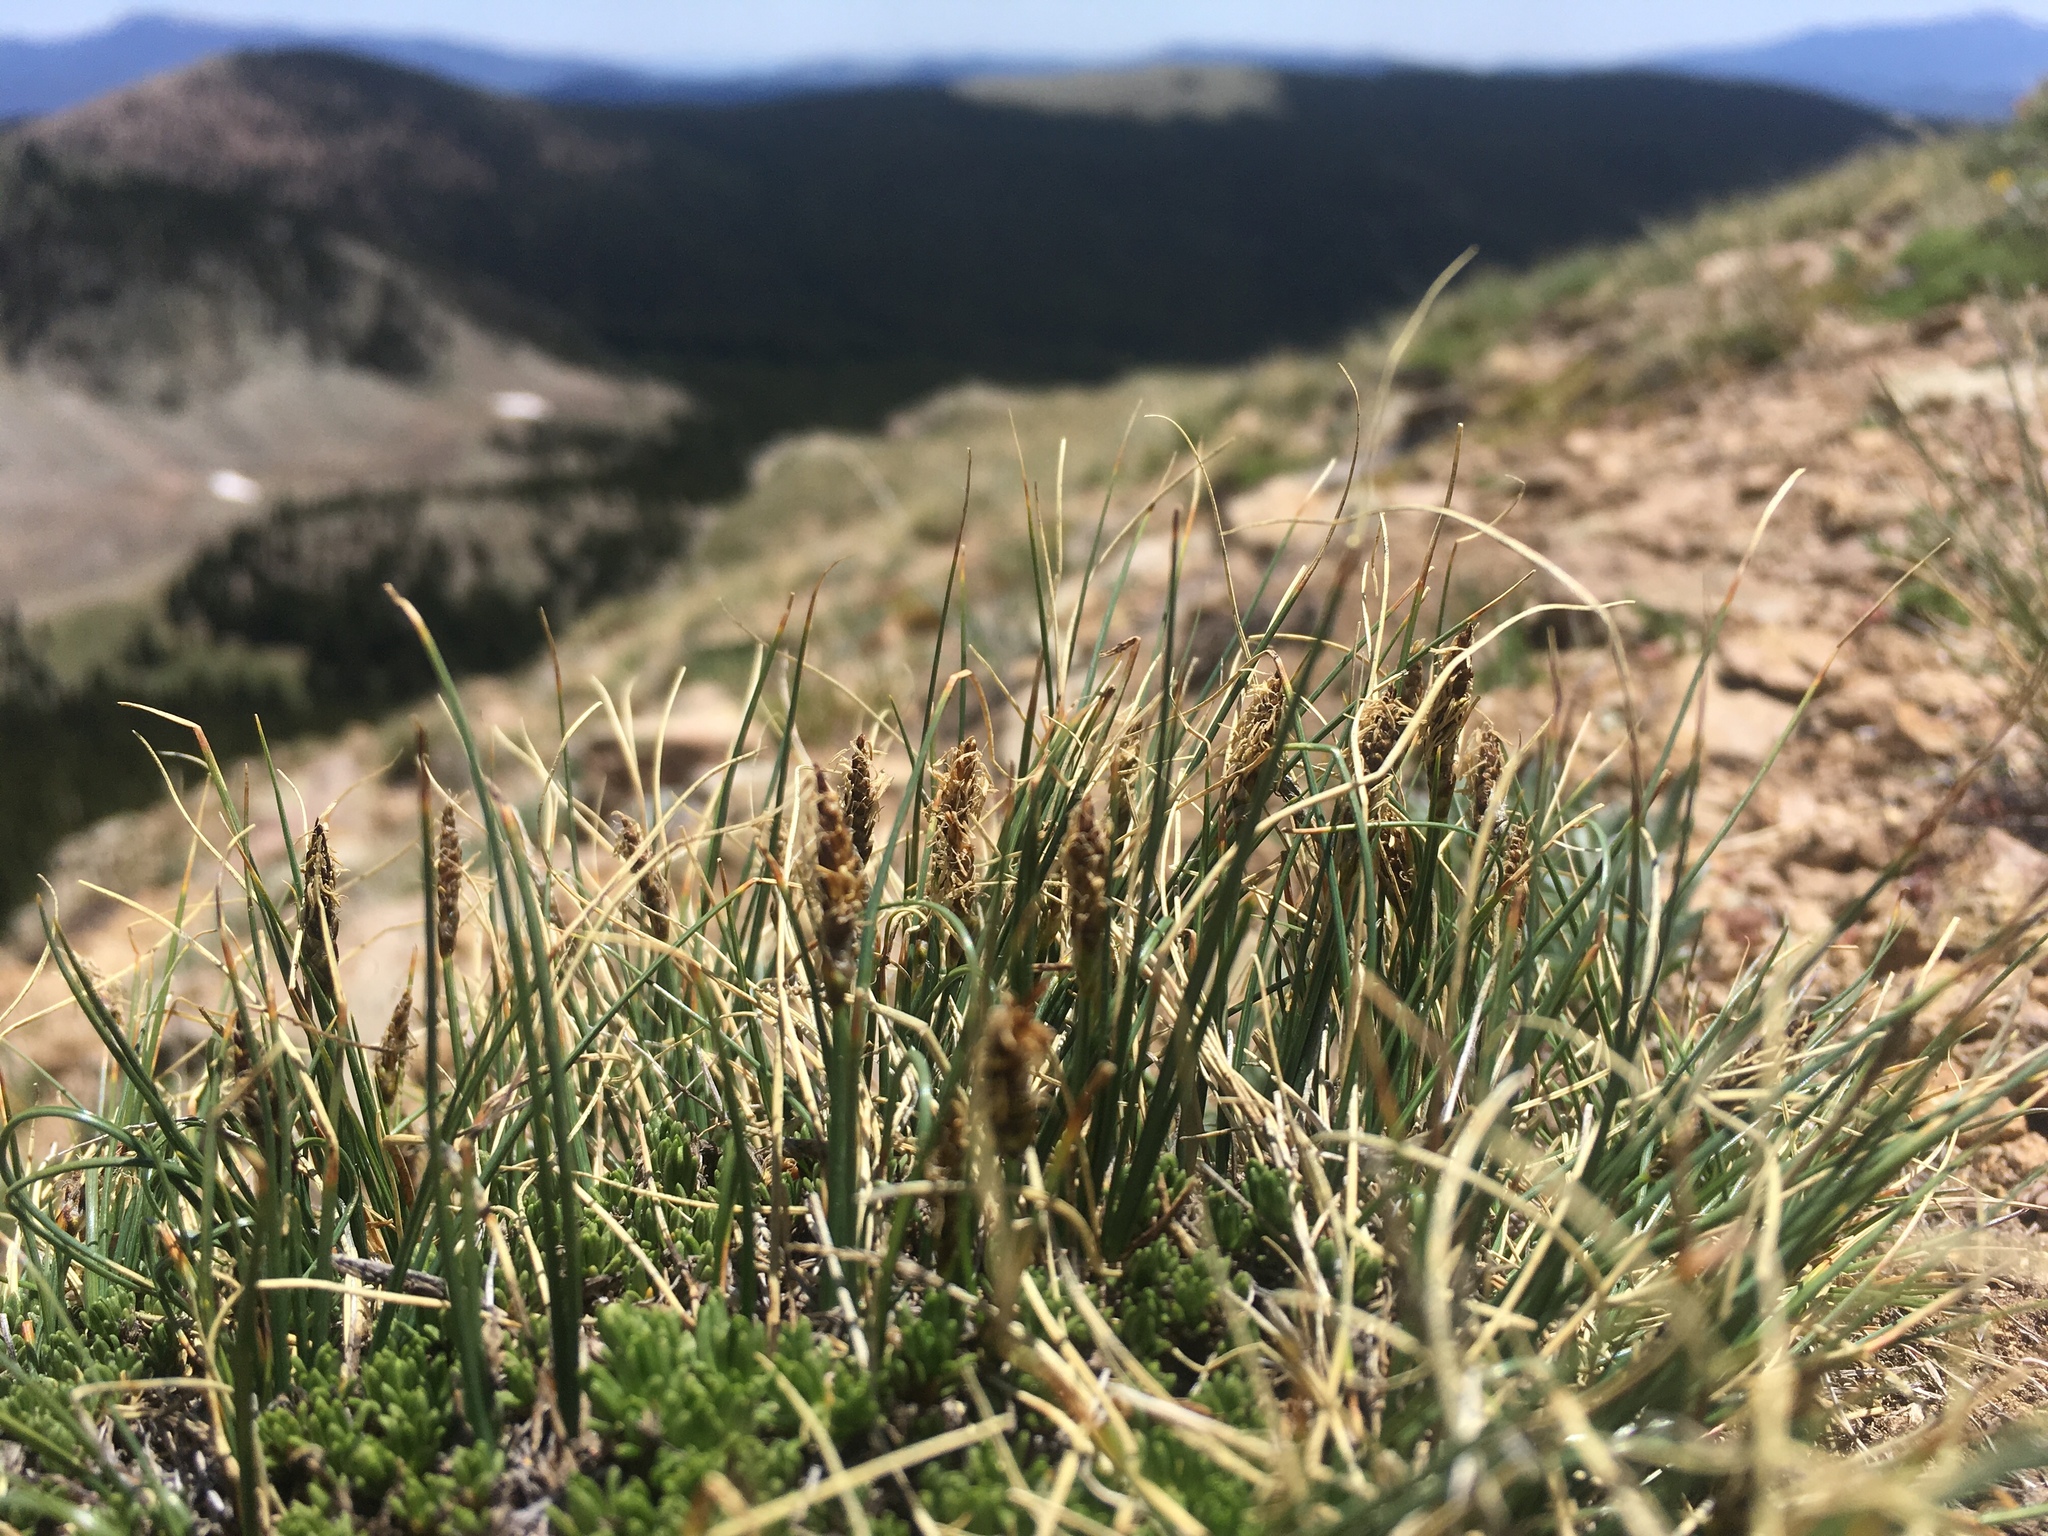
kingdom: Plantae
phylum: Tracheophyta
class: Liliopsida
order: Poales
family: Cyperaceae
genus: Carex
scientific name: Carex rupestris
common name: Rock sedge
